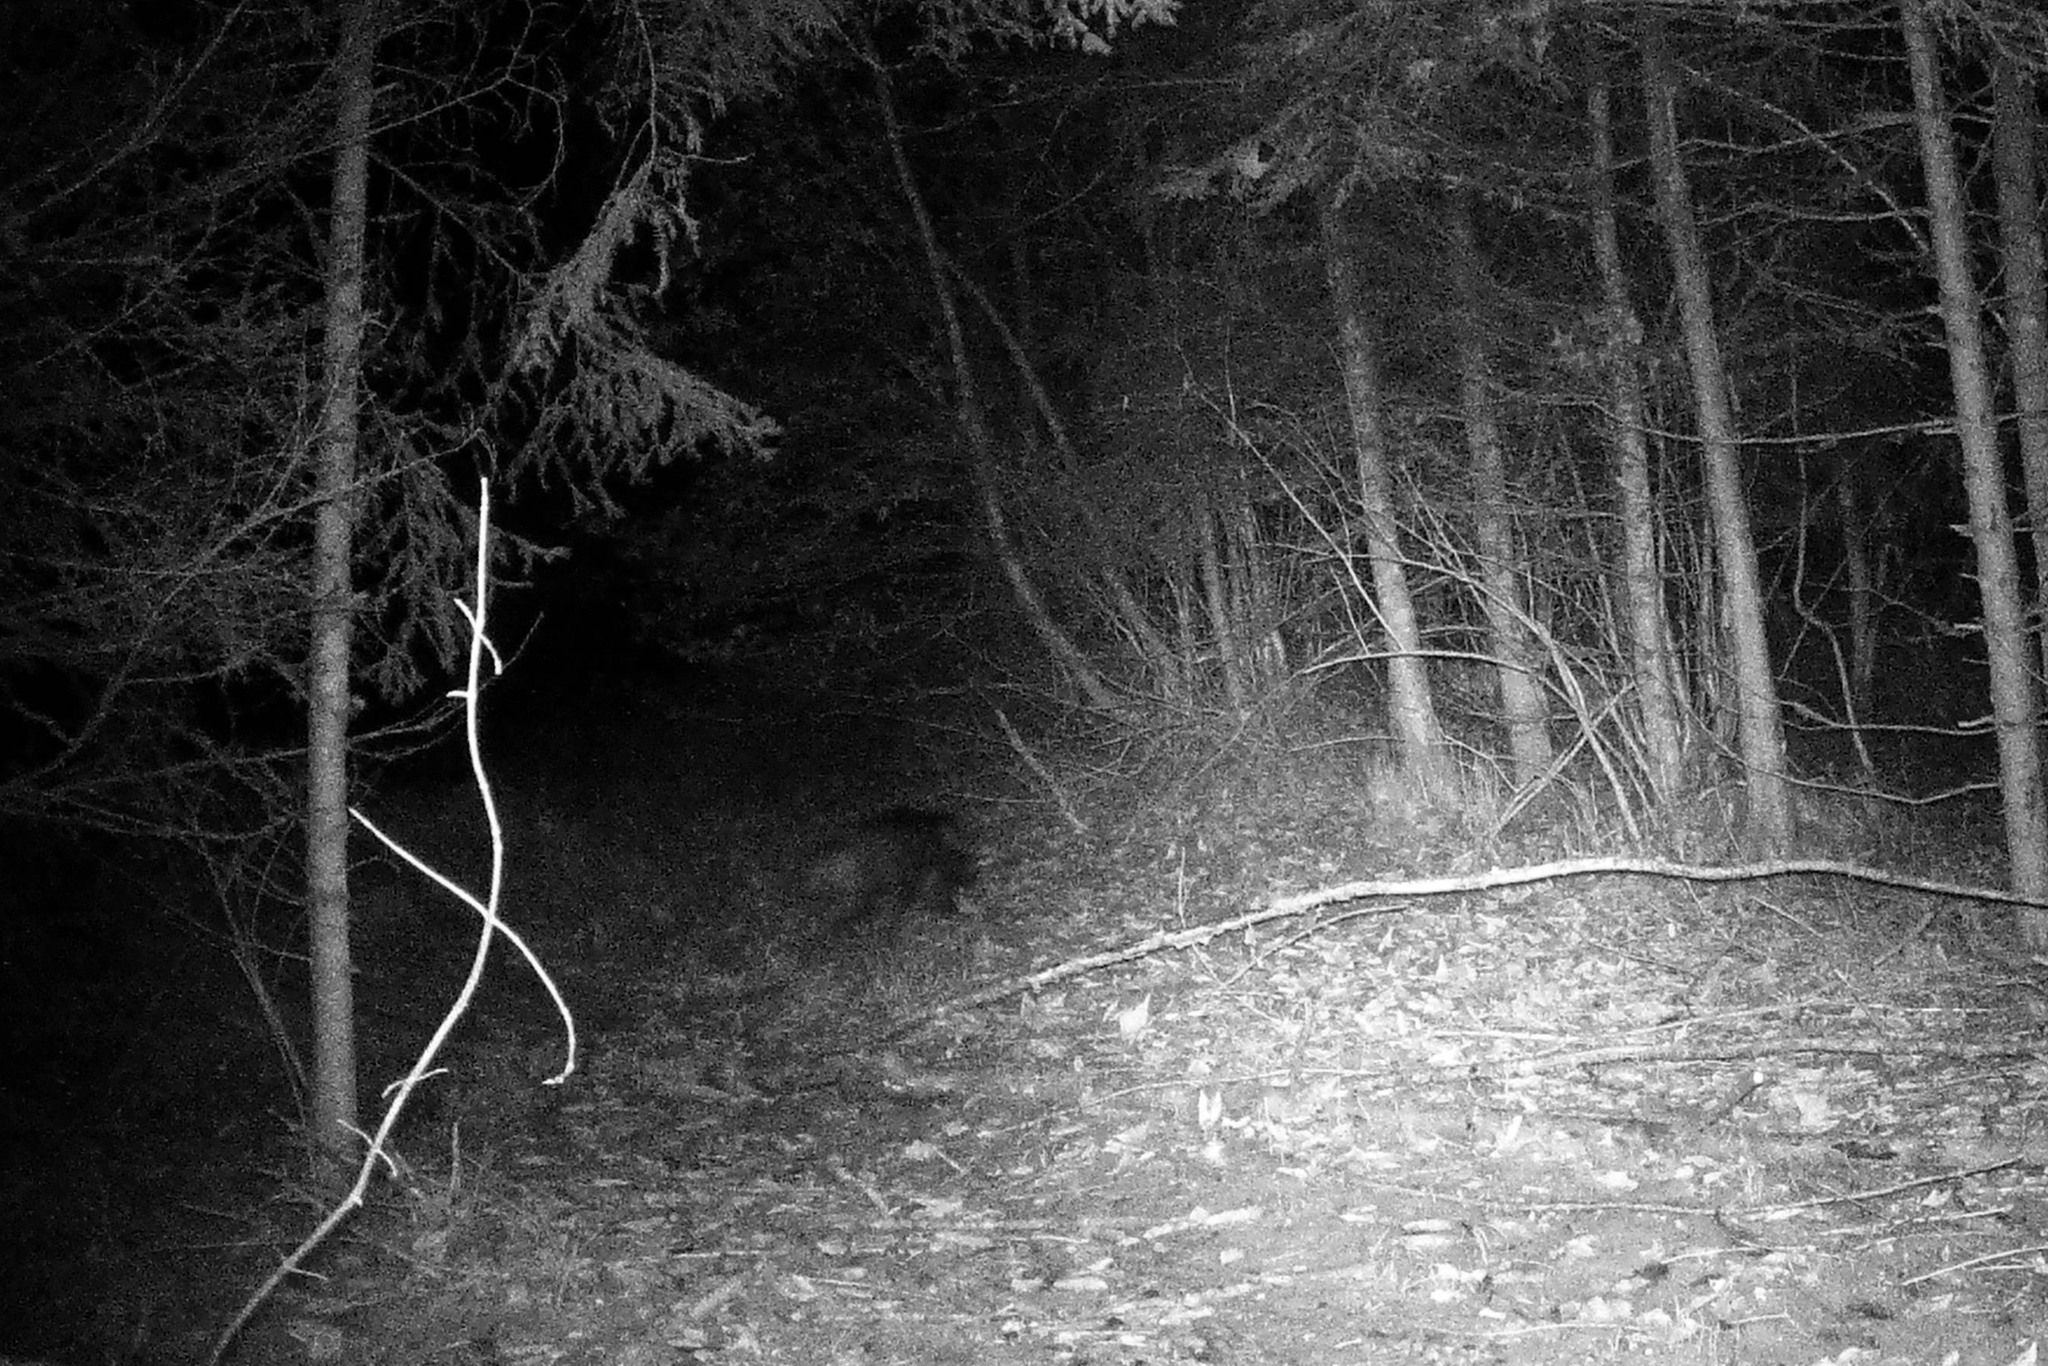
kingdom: Animalia
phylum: Chordata
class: Mammalia
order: Artiodactyla
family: Suidae
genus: Sus
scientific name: Sus scrofa
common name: Wild boar
